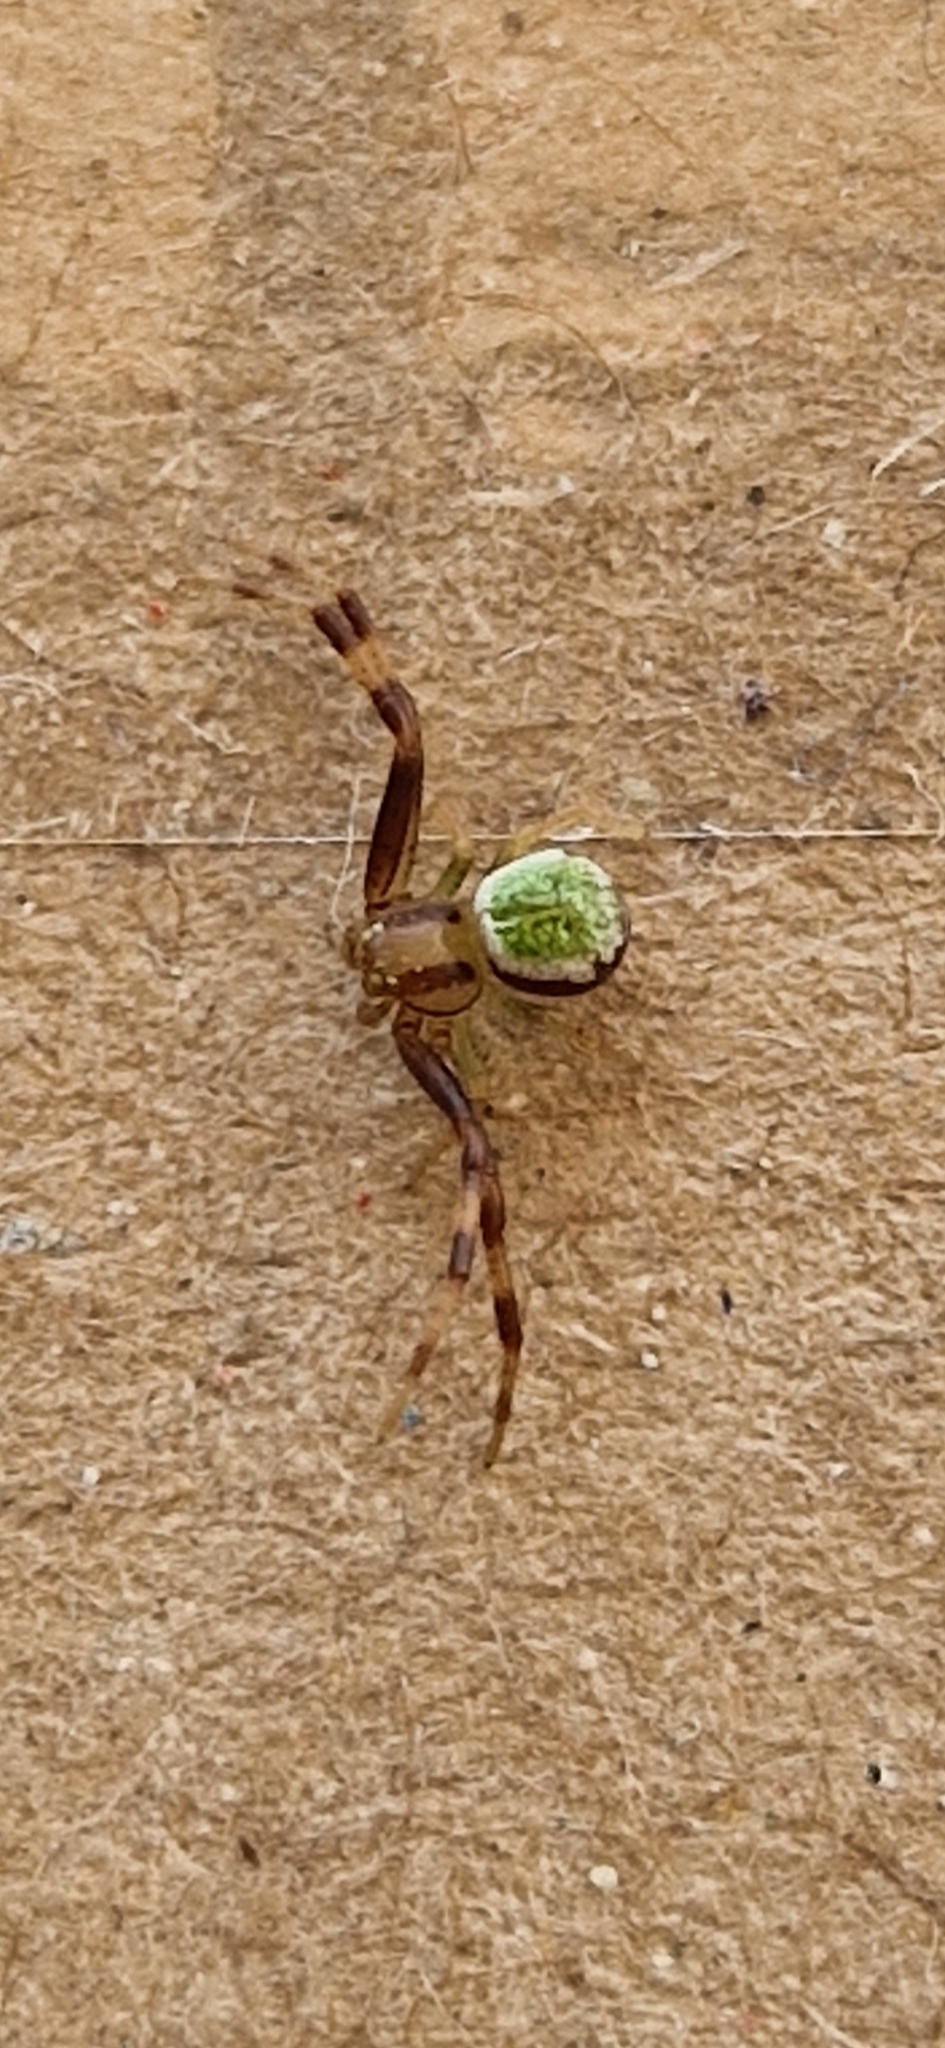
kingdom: Animalia
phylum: Arthropoda
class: Arachnida
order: Araneae
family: Thomisidae
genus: Ebrechtella
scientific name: Ebrechtella tricuspidata
